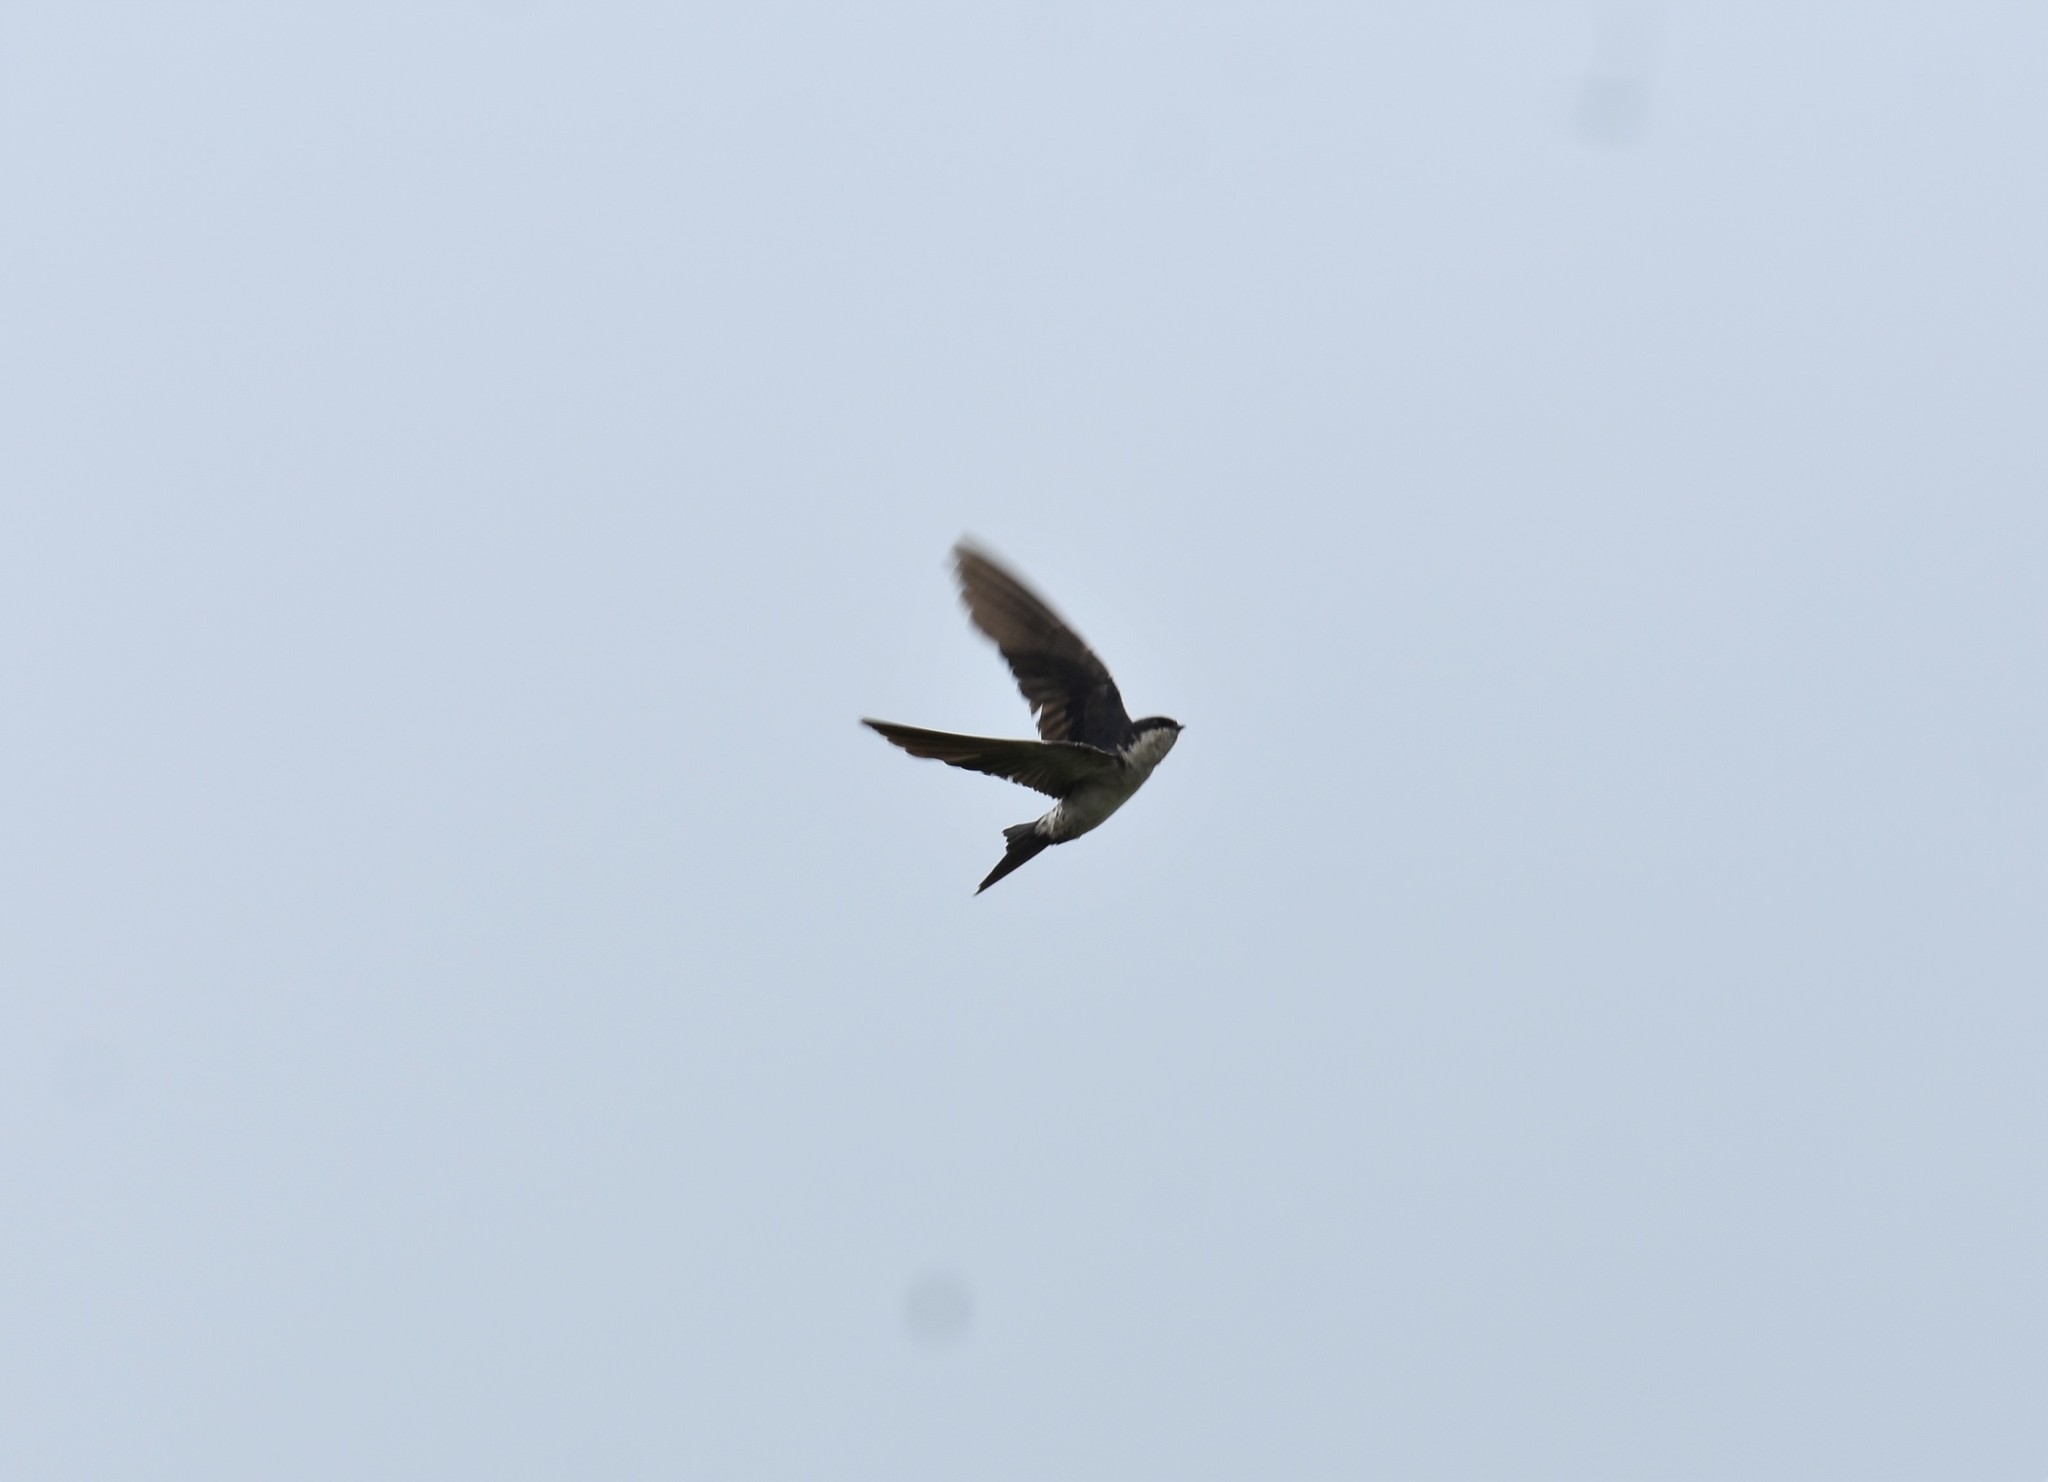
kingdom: Animalia
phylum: Chordata
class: Aves
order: Passeriformes
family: Hirundinidae
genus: Delichon
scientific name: Delichon urbicum
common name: Common house martin
